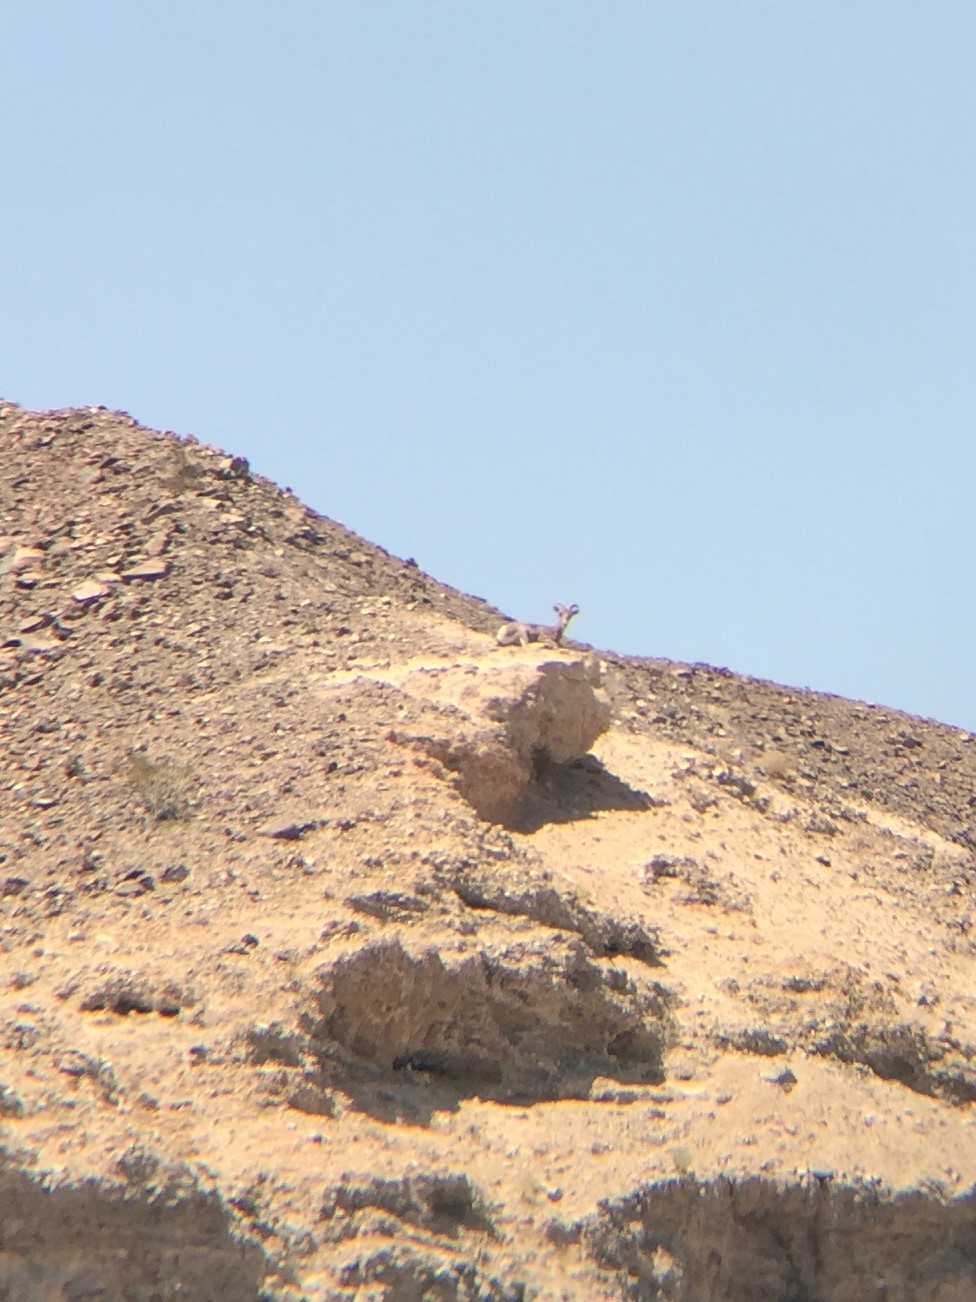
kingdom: Animalia
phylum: Chordata
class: Mammalia
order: Artiodactyla
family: Bovidae
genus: Ovis
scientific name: Ovis canadensis
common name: Bighorn sheep
